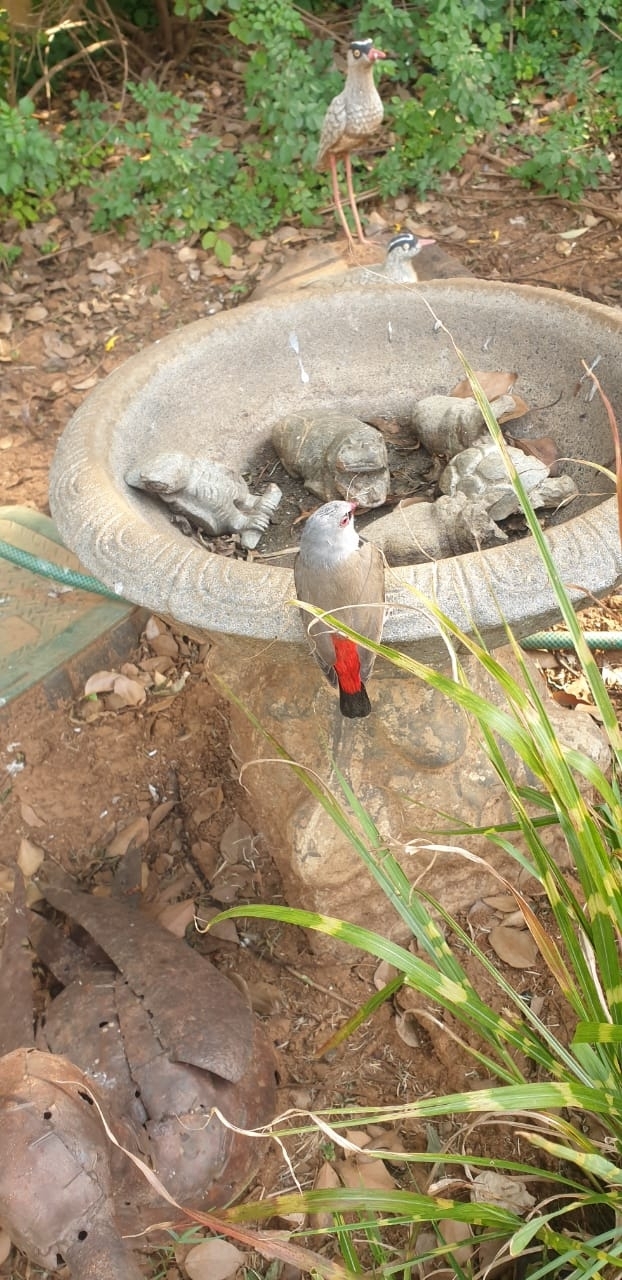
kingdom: Animalia
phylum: Chordata
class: Aves
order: Passeriformes
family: Estrildidae
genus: Stagonopleura
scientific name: Stagonopleura guttata
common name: Diamond firetail
